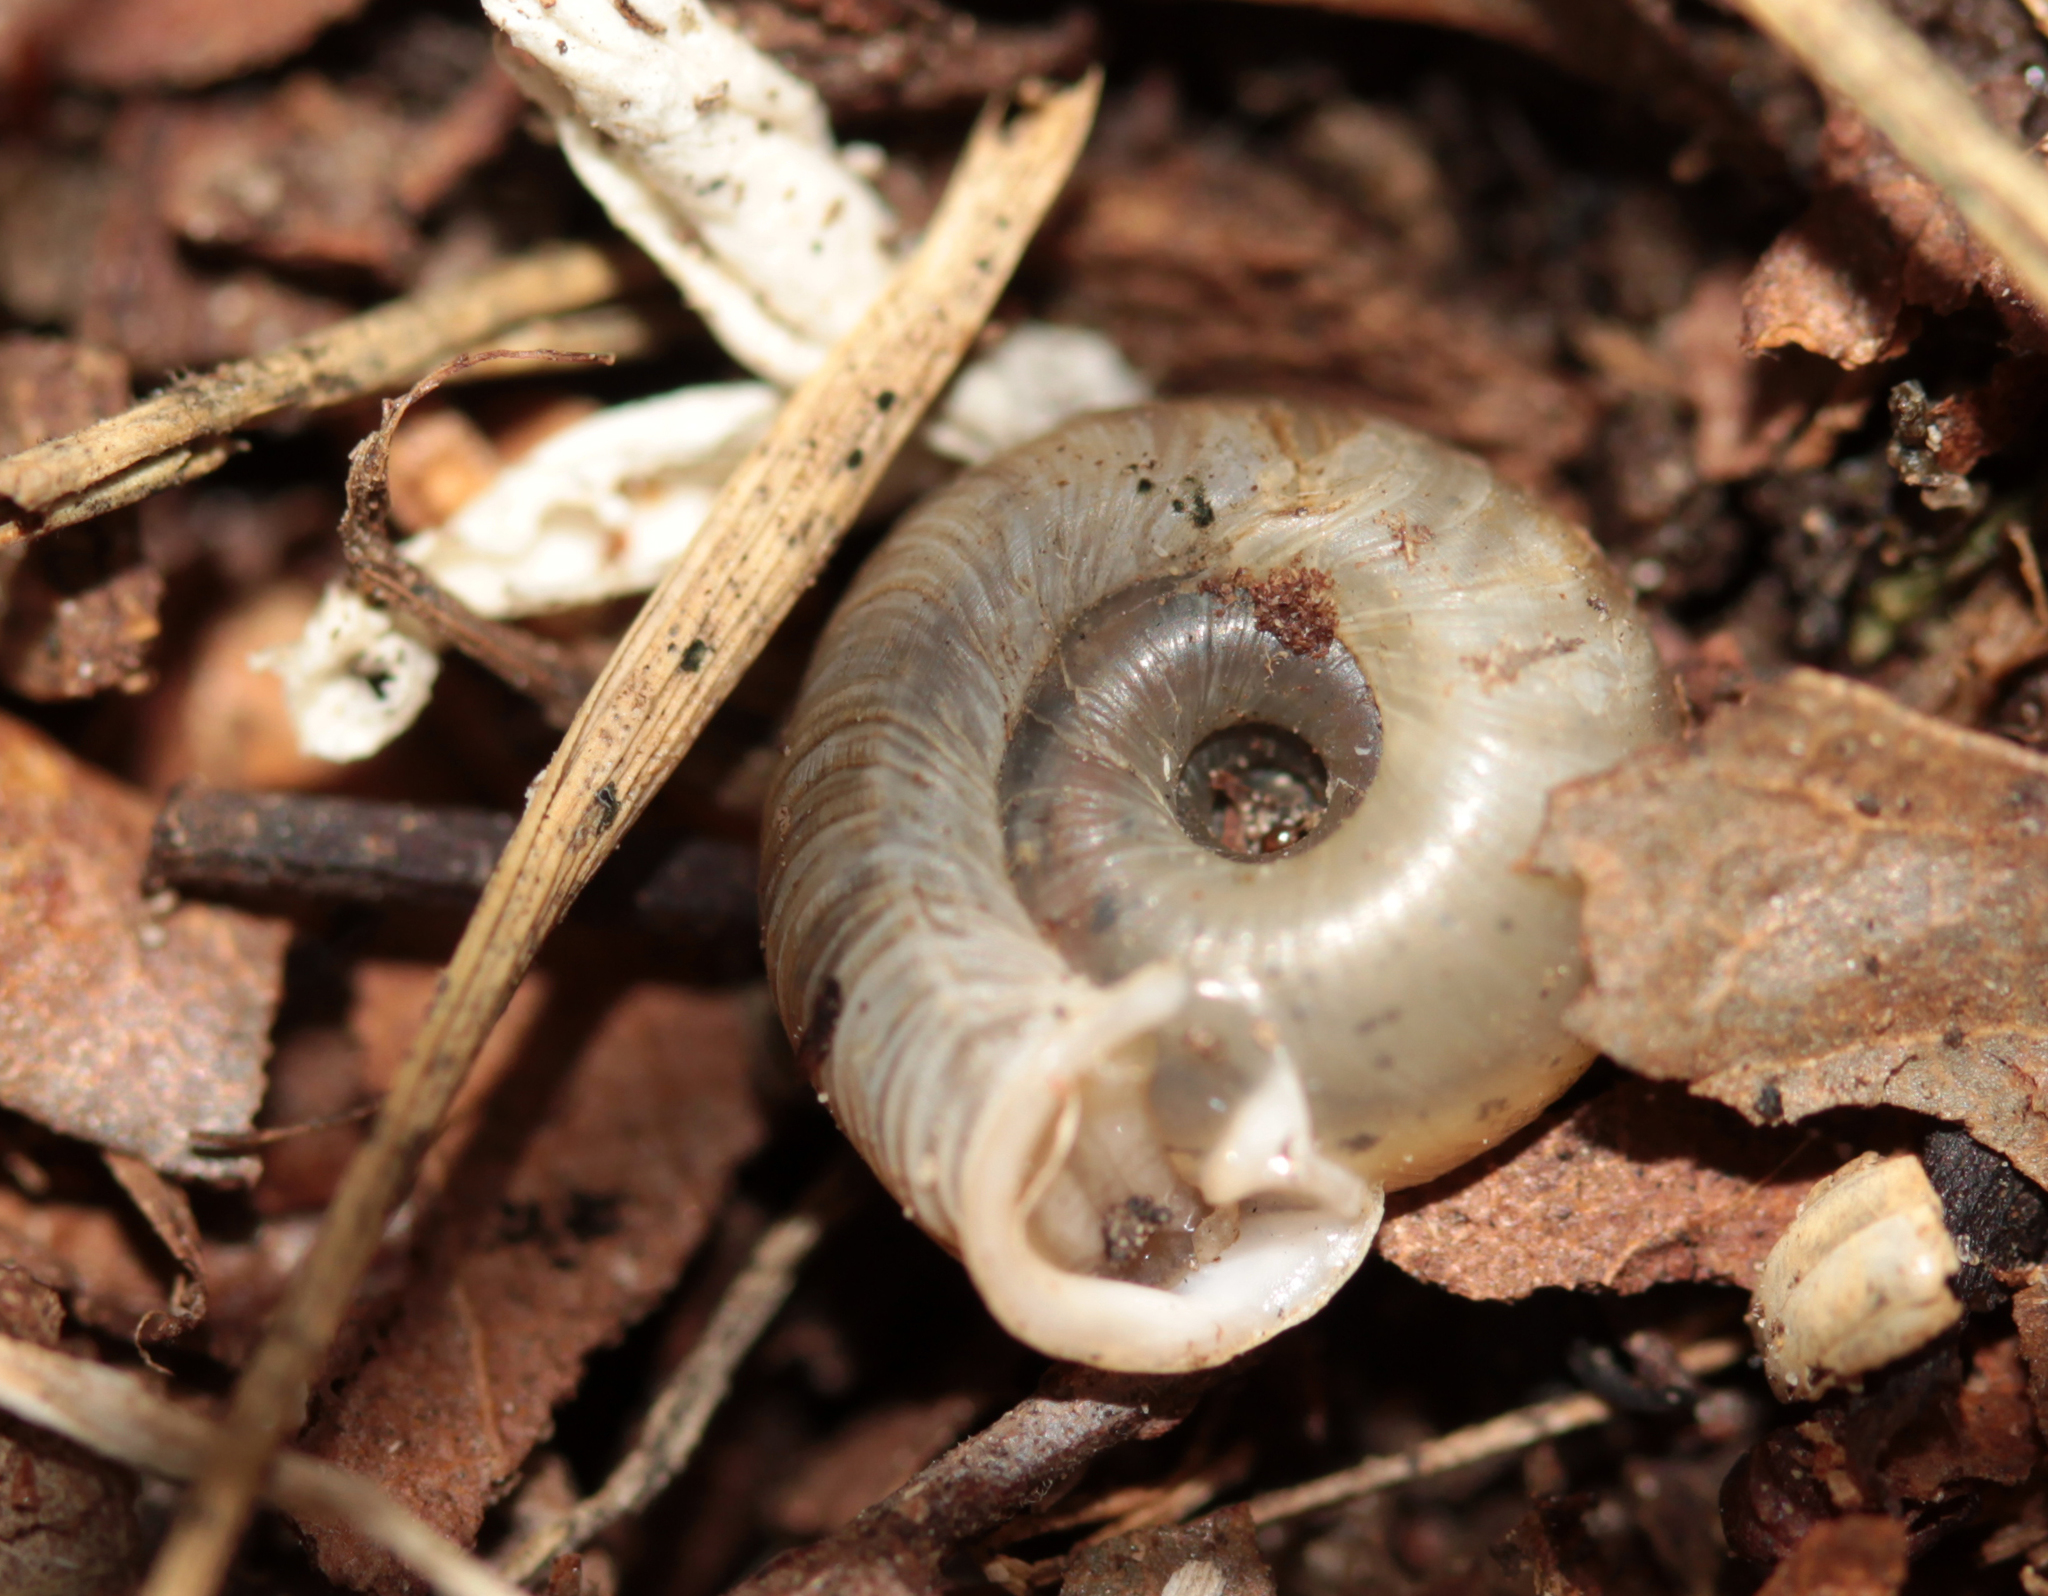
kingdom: Animalia
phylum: Mollusca
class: Gastropoda
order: Stylommatophora
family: Polygyridae
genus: Polygyra
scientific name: Polygyra cereolus
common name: Southern flatcone snail
